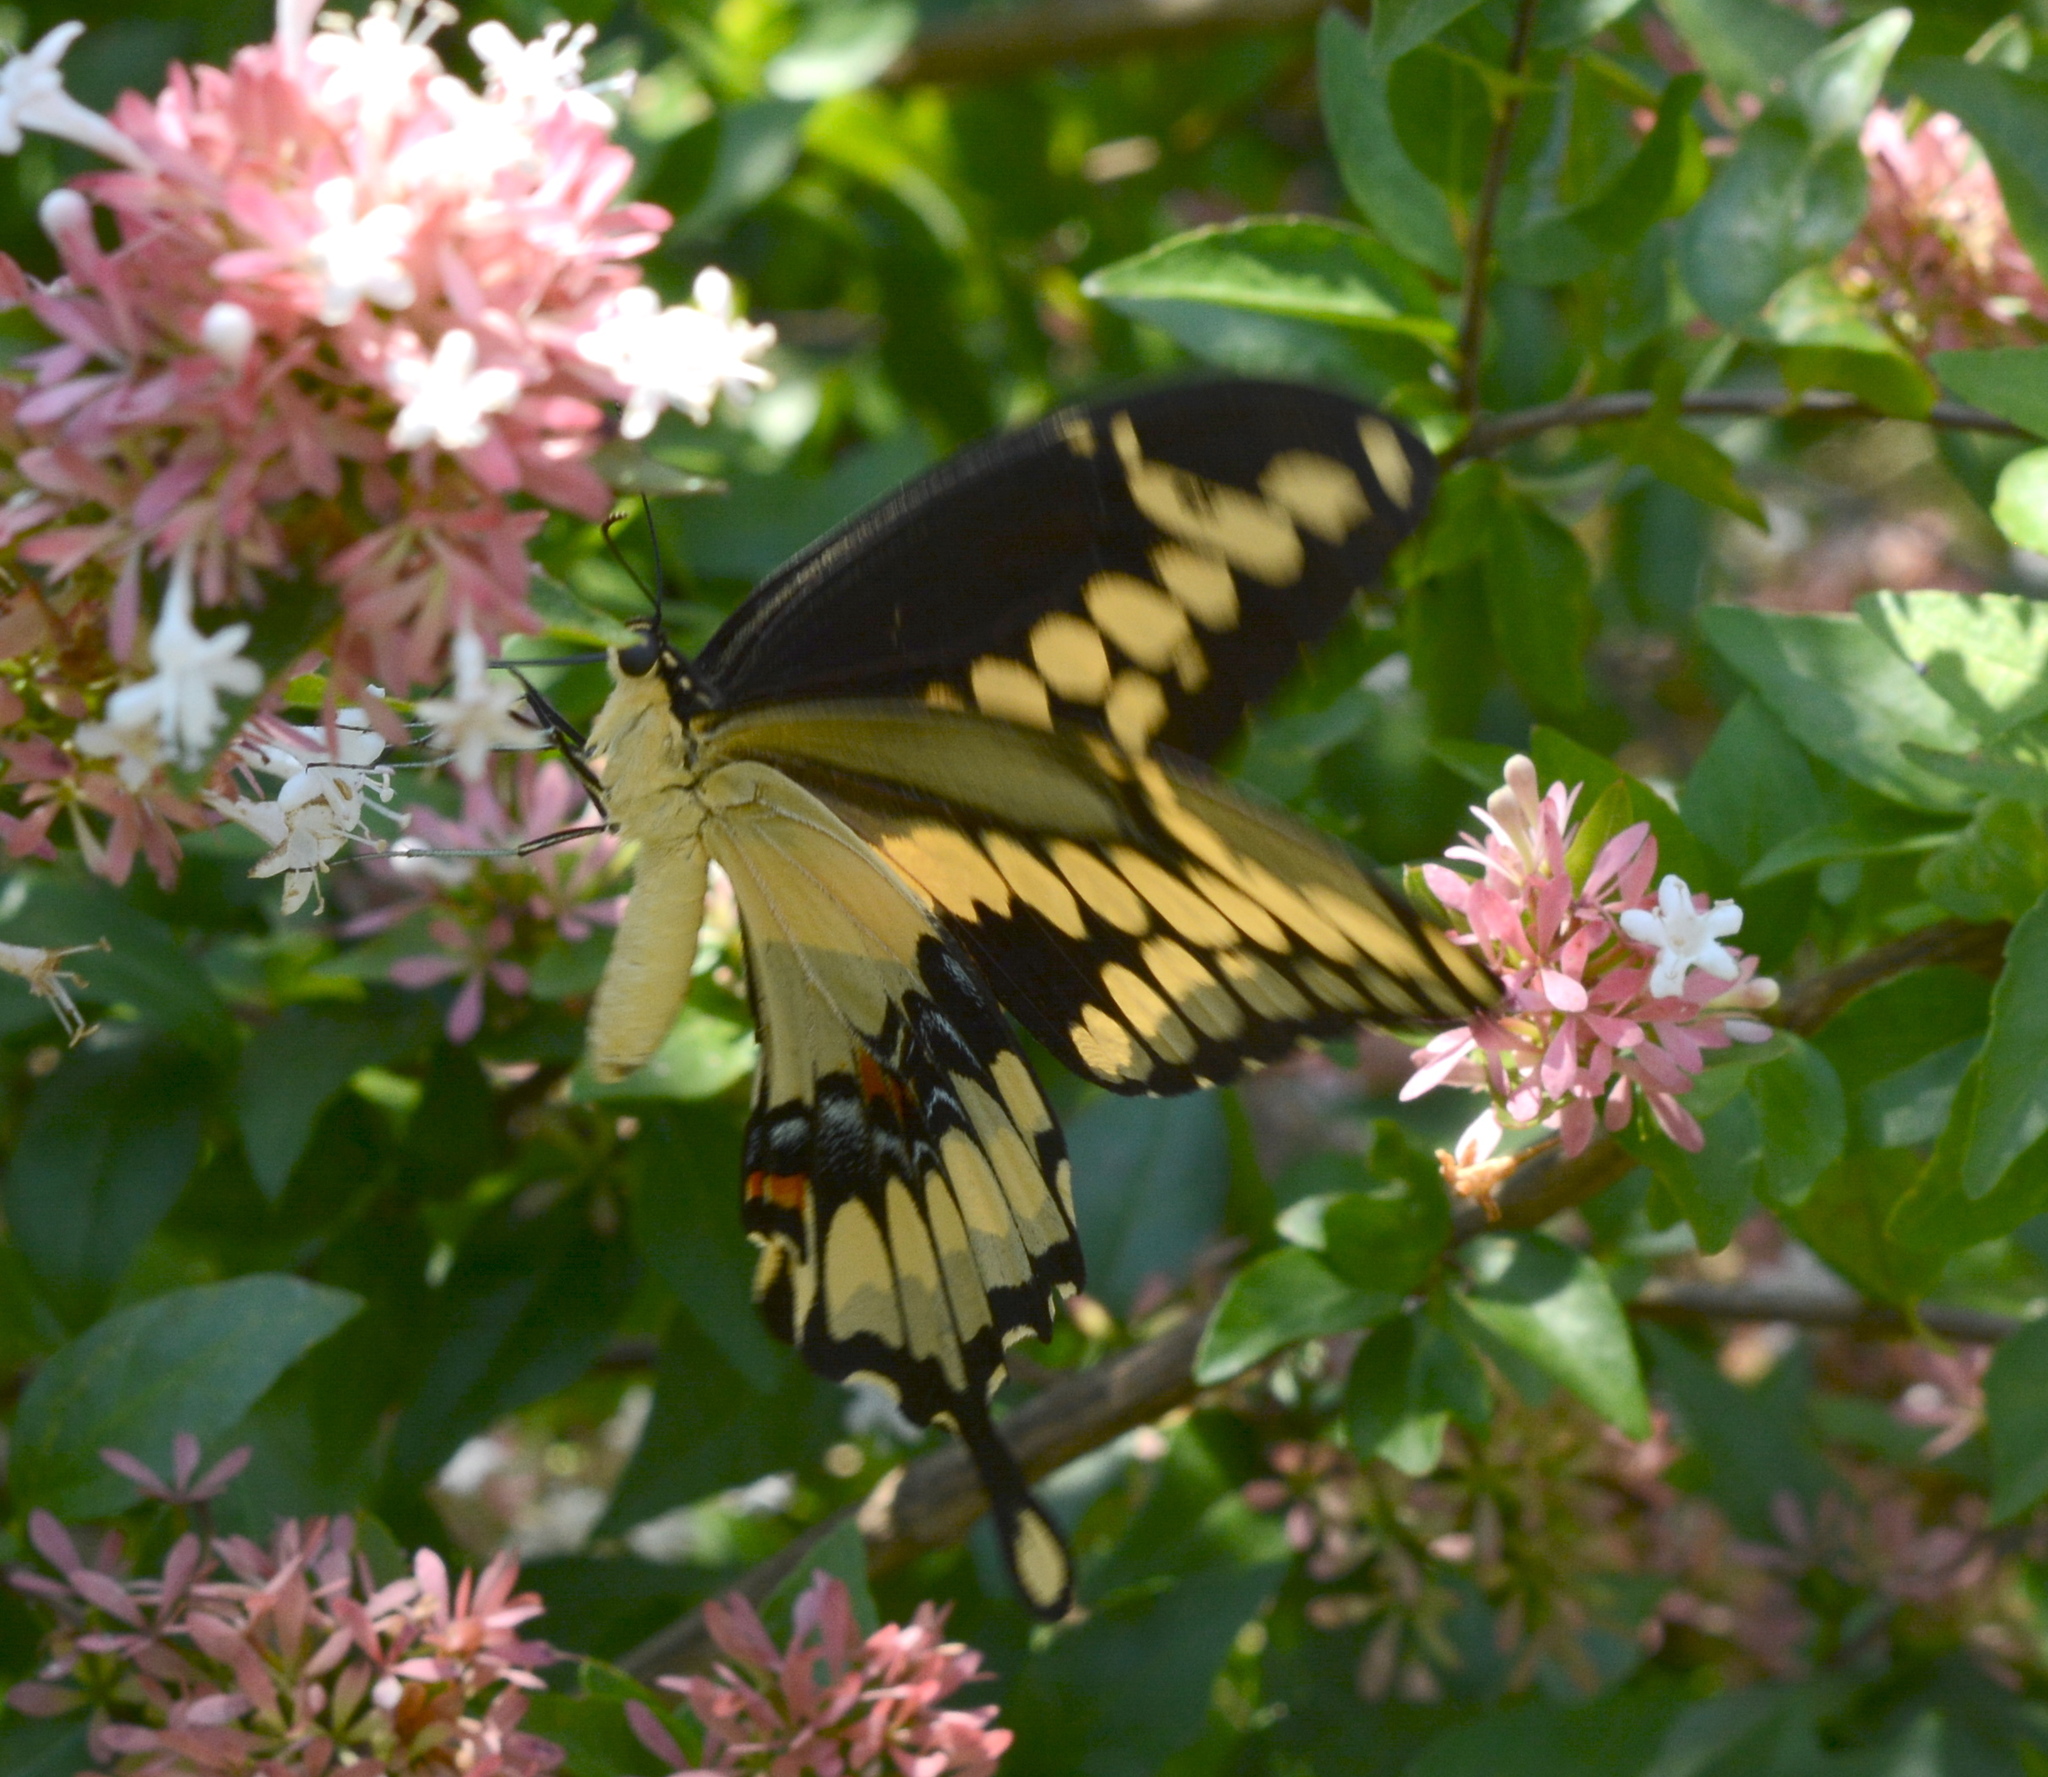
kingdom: Animalia
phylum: Arthropoda
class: Insecta
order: Lepidoptera
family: Papilionidae
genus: Papilio
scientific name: Papilio cresphontes
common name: Giant swallowtail
